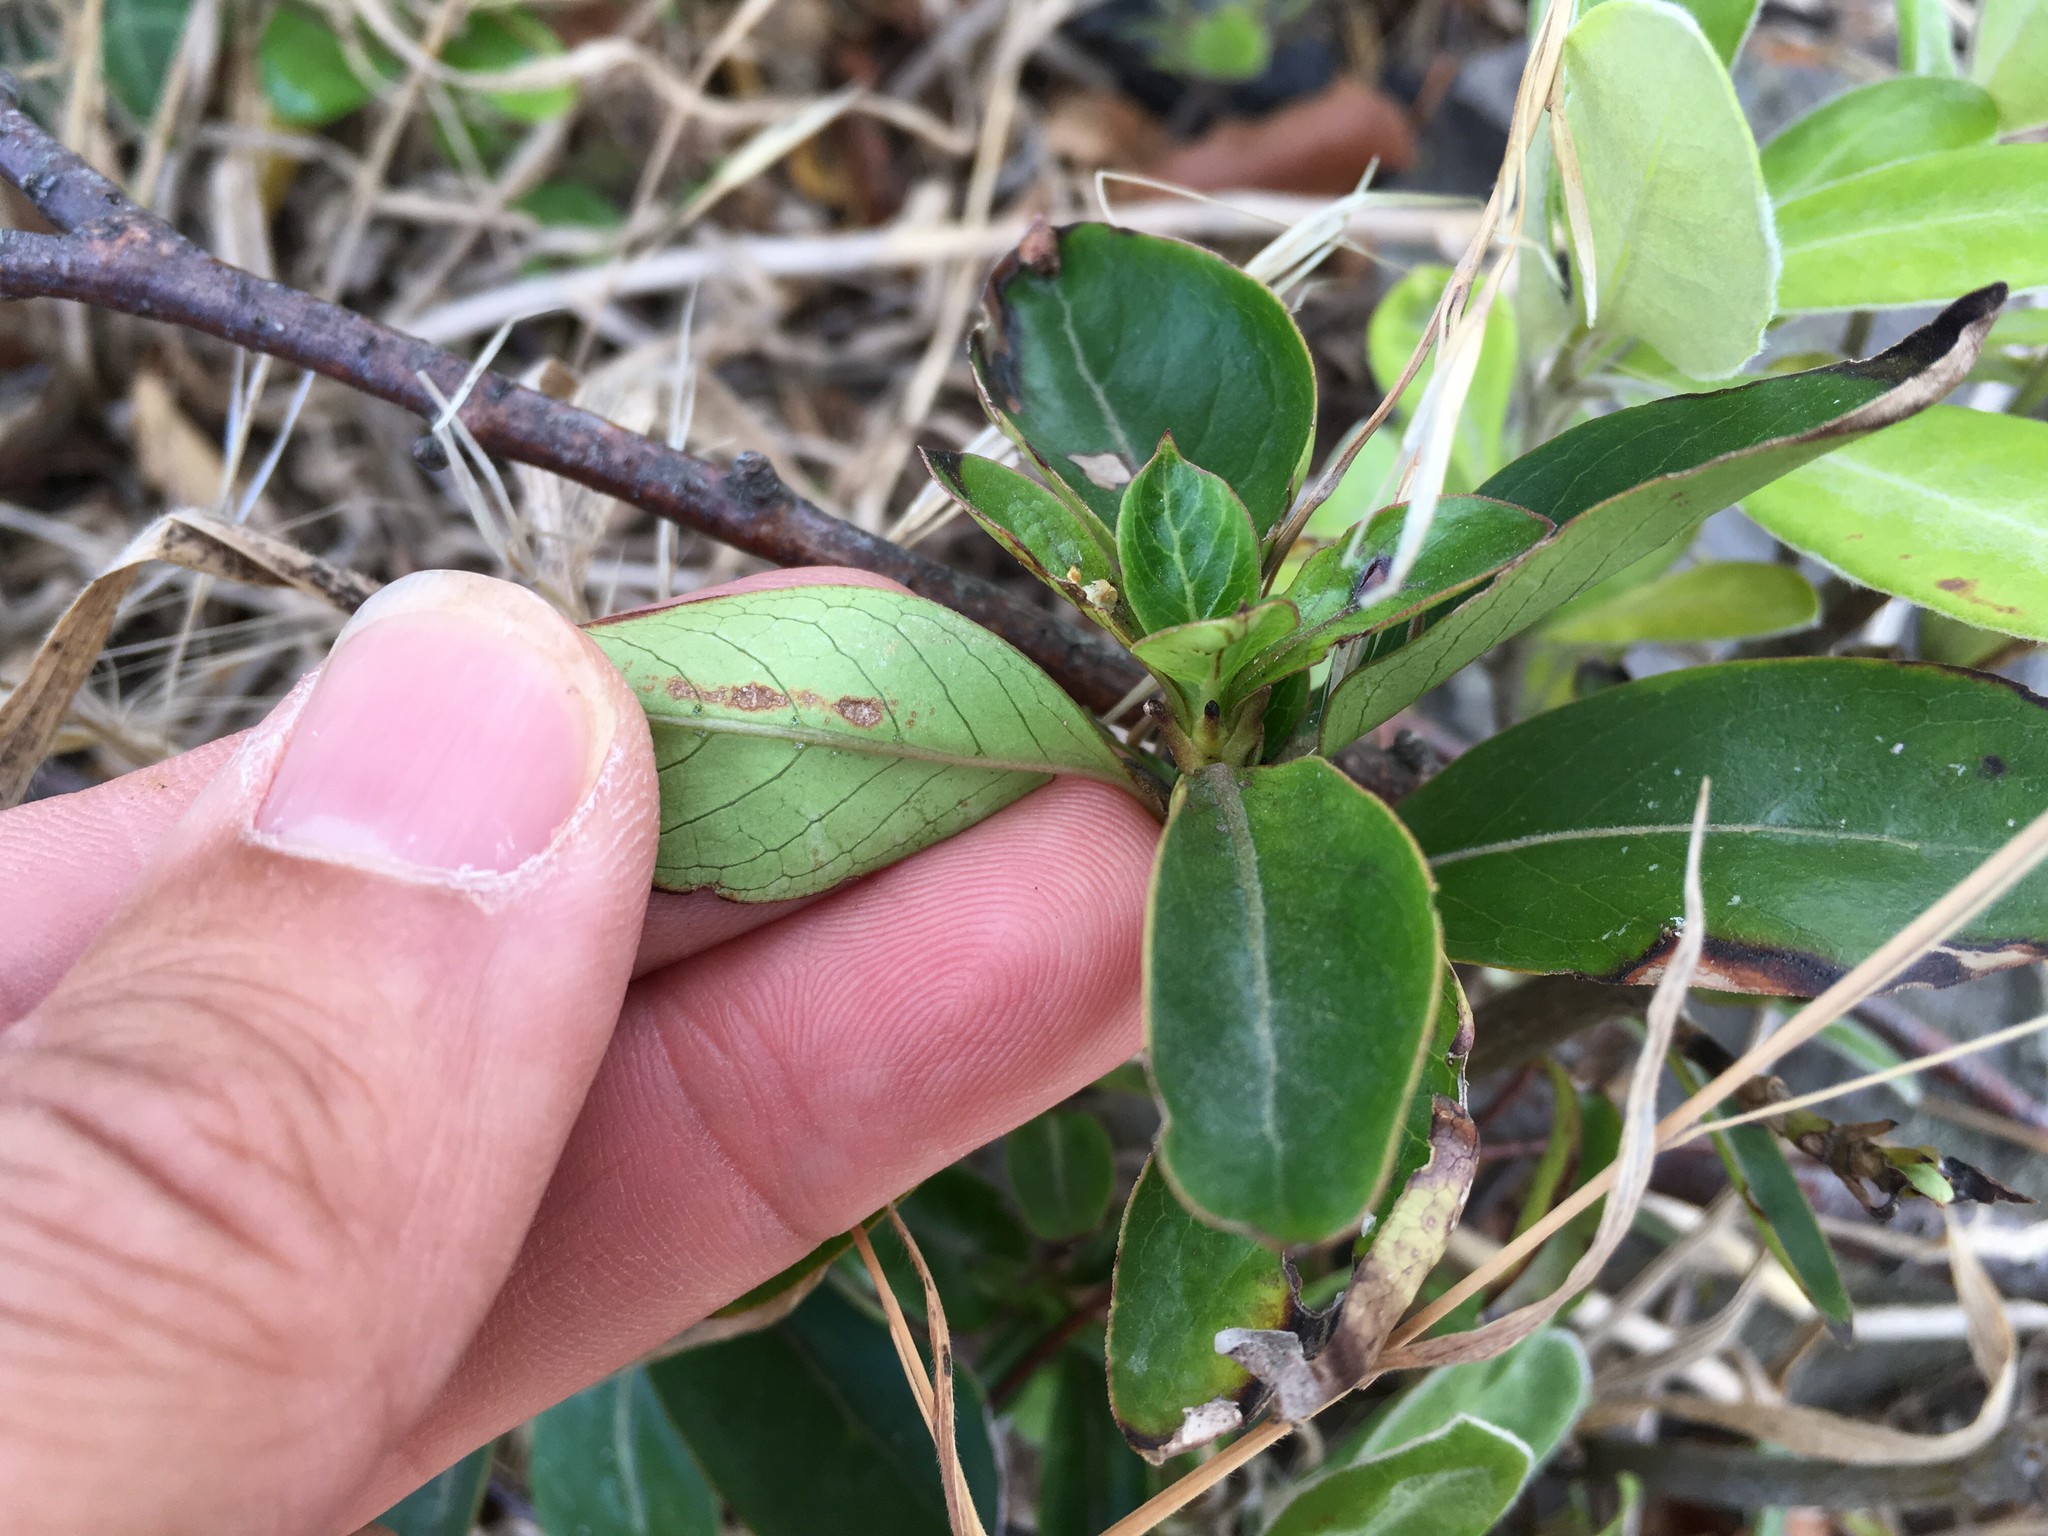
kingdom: Plantae
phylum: Tracheophyta
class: Magnoliopsida
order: Gentianales
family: Rubiaceae
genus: Coprosma
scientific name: Coprosma robusta
